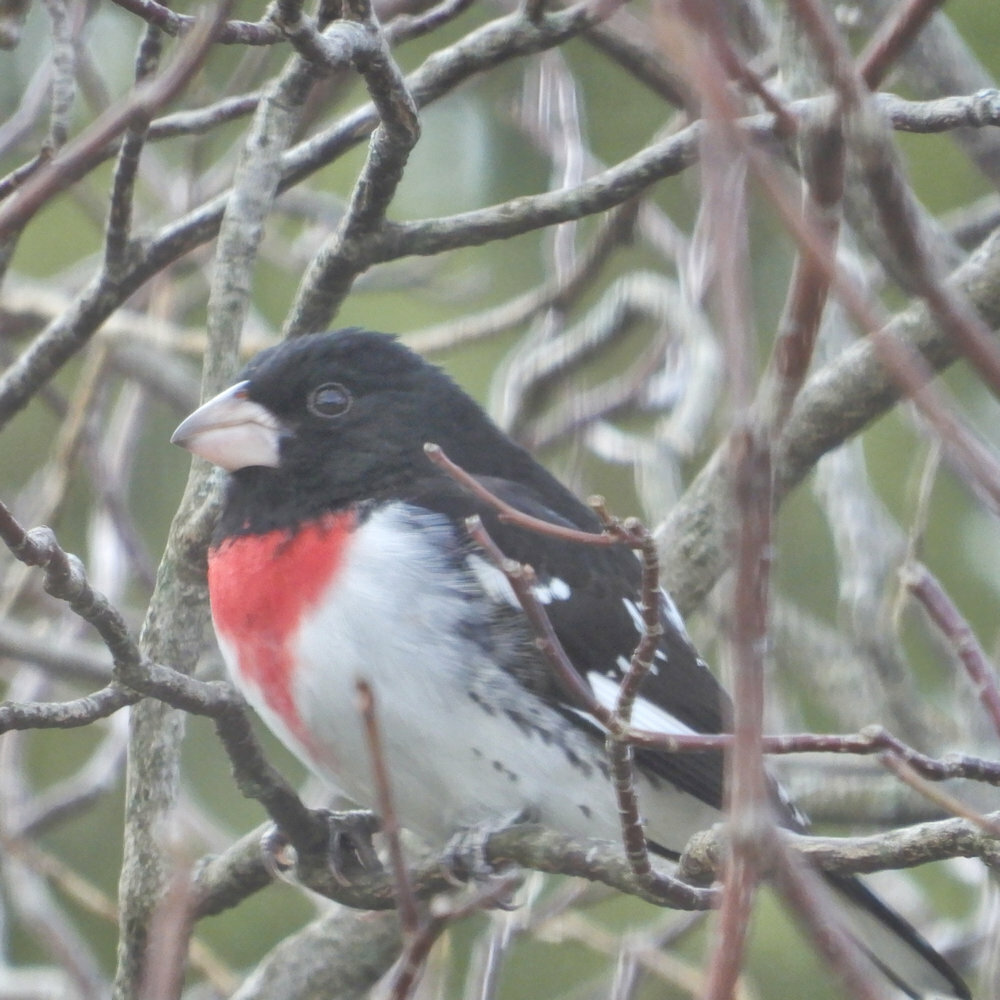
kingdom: Animalia
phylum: Chordata
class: Aves
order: Passeriformes
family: Cardinalidae
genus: Pheucticus
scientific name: Pheucticus ludovicianus
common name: Rose-breasted grosbeak
